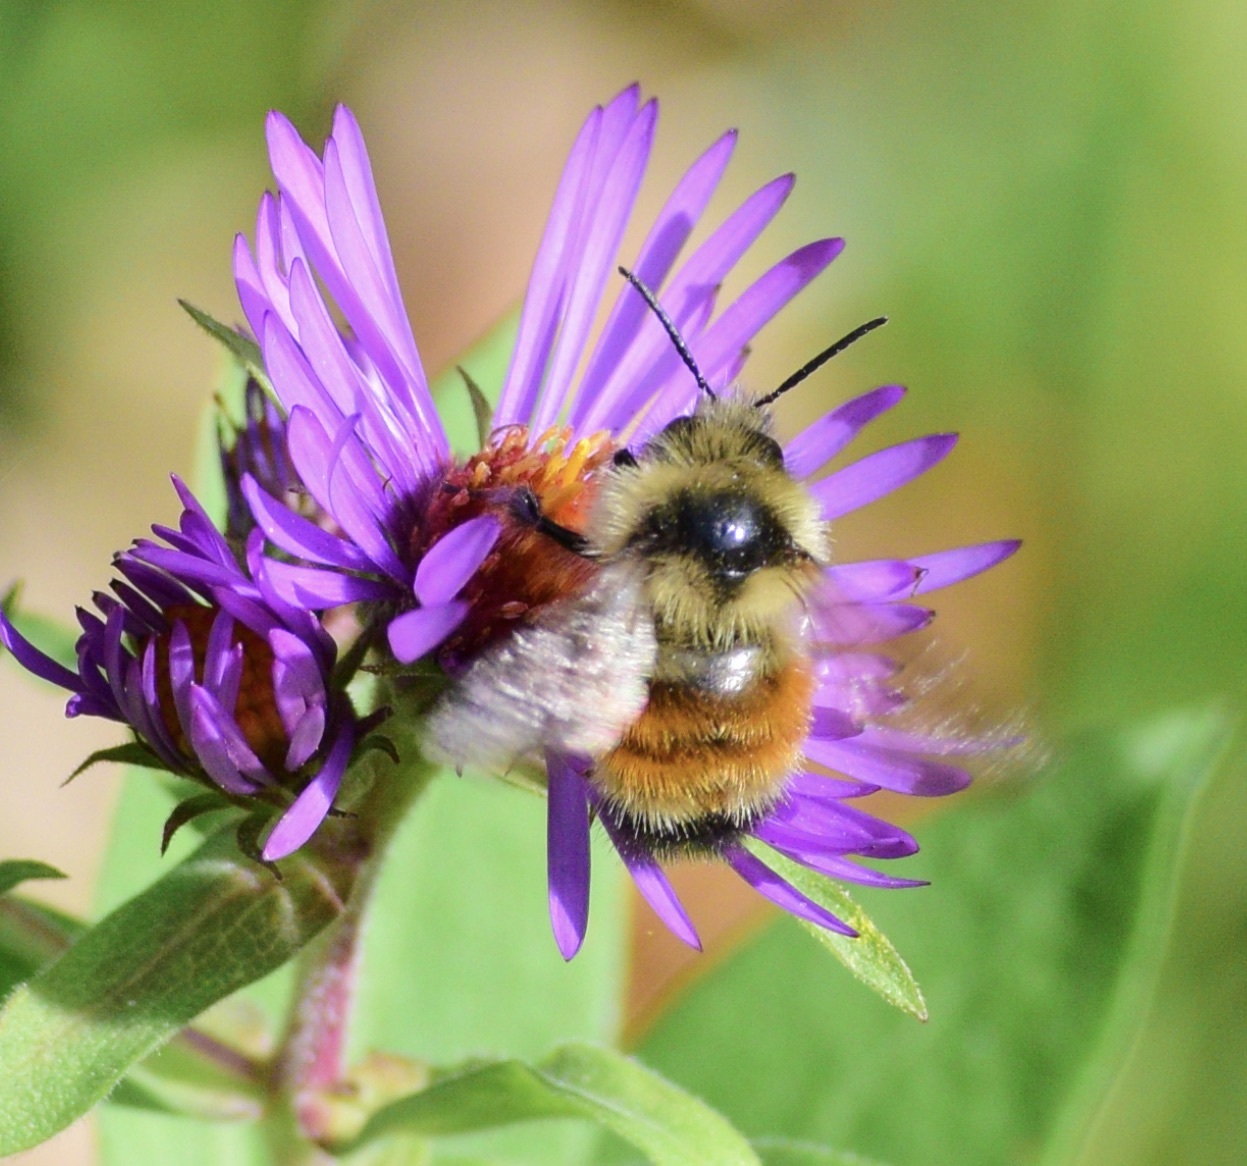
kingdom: Animalia
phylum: Arthropoda
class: Insecta
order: Hymenoptera
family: Apidae
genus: Bombus
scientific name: Bombus ternarius
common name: Tri-colored bumble bee
